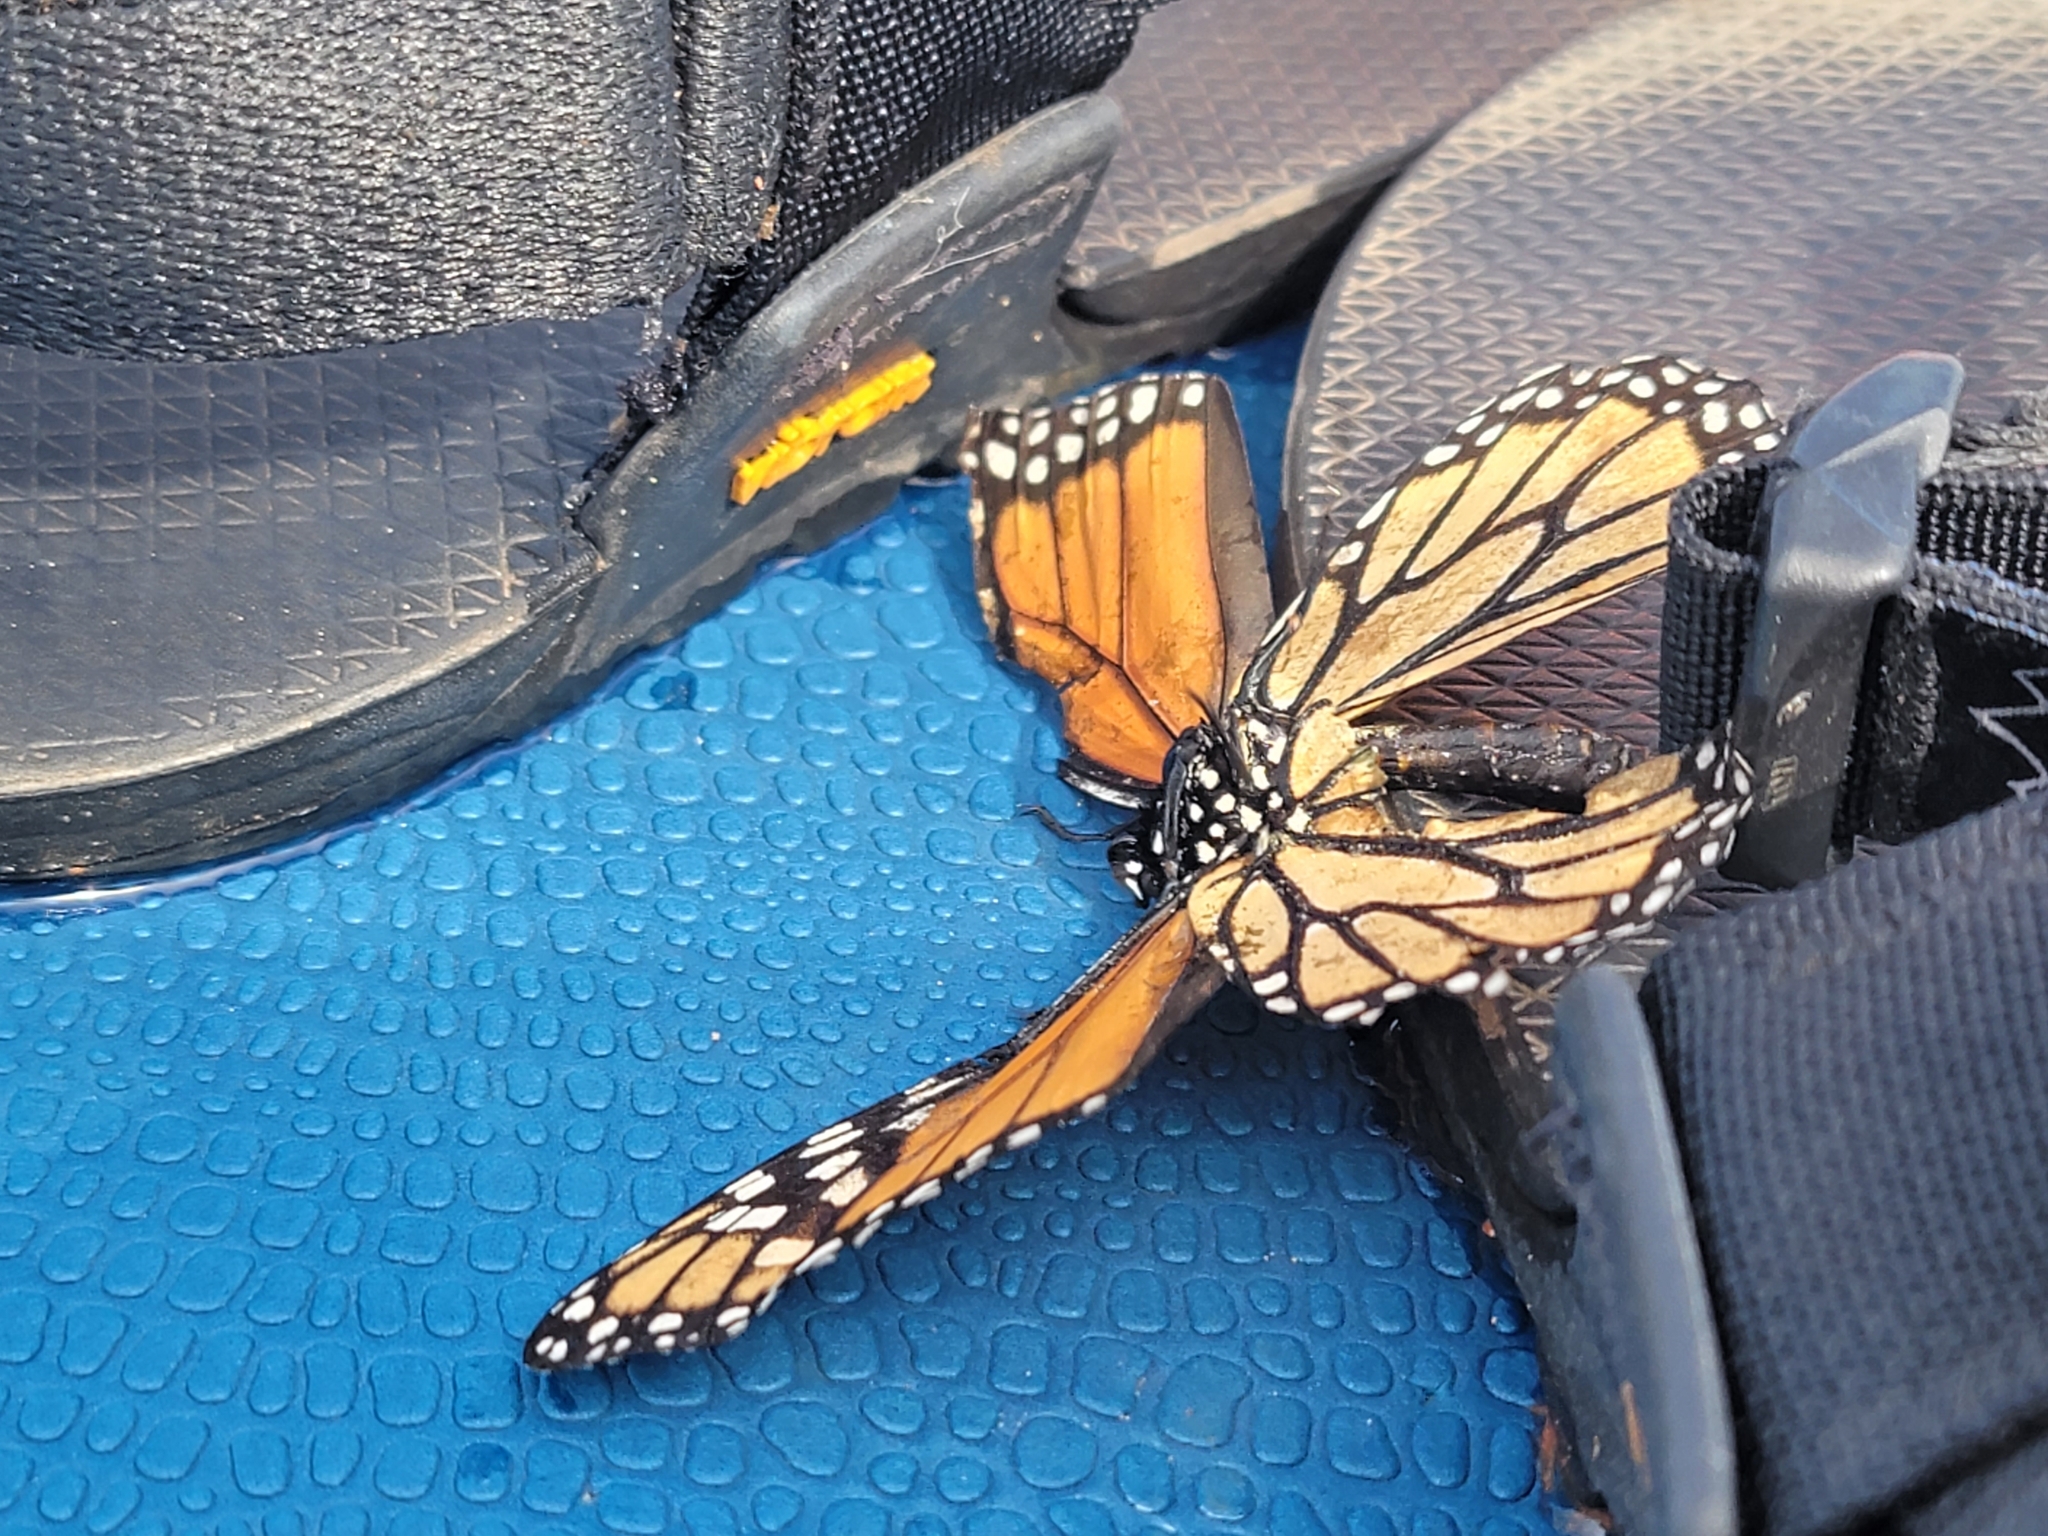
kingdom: Animalia
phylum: Arthropoda
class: Insecta
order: Lepidoptera
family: Nymphalidae
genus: Danaus
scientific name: Danaus plexippus
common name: Monarch
